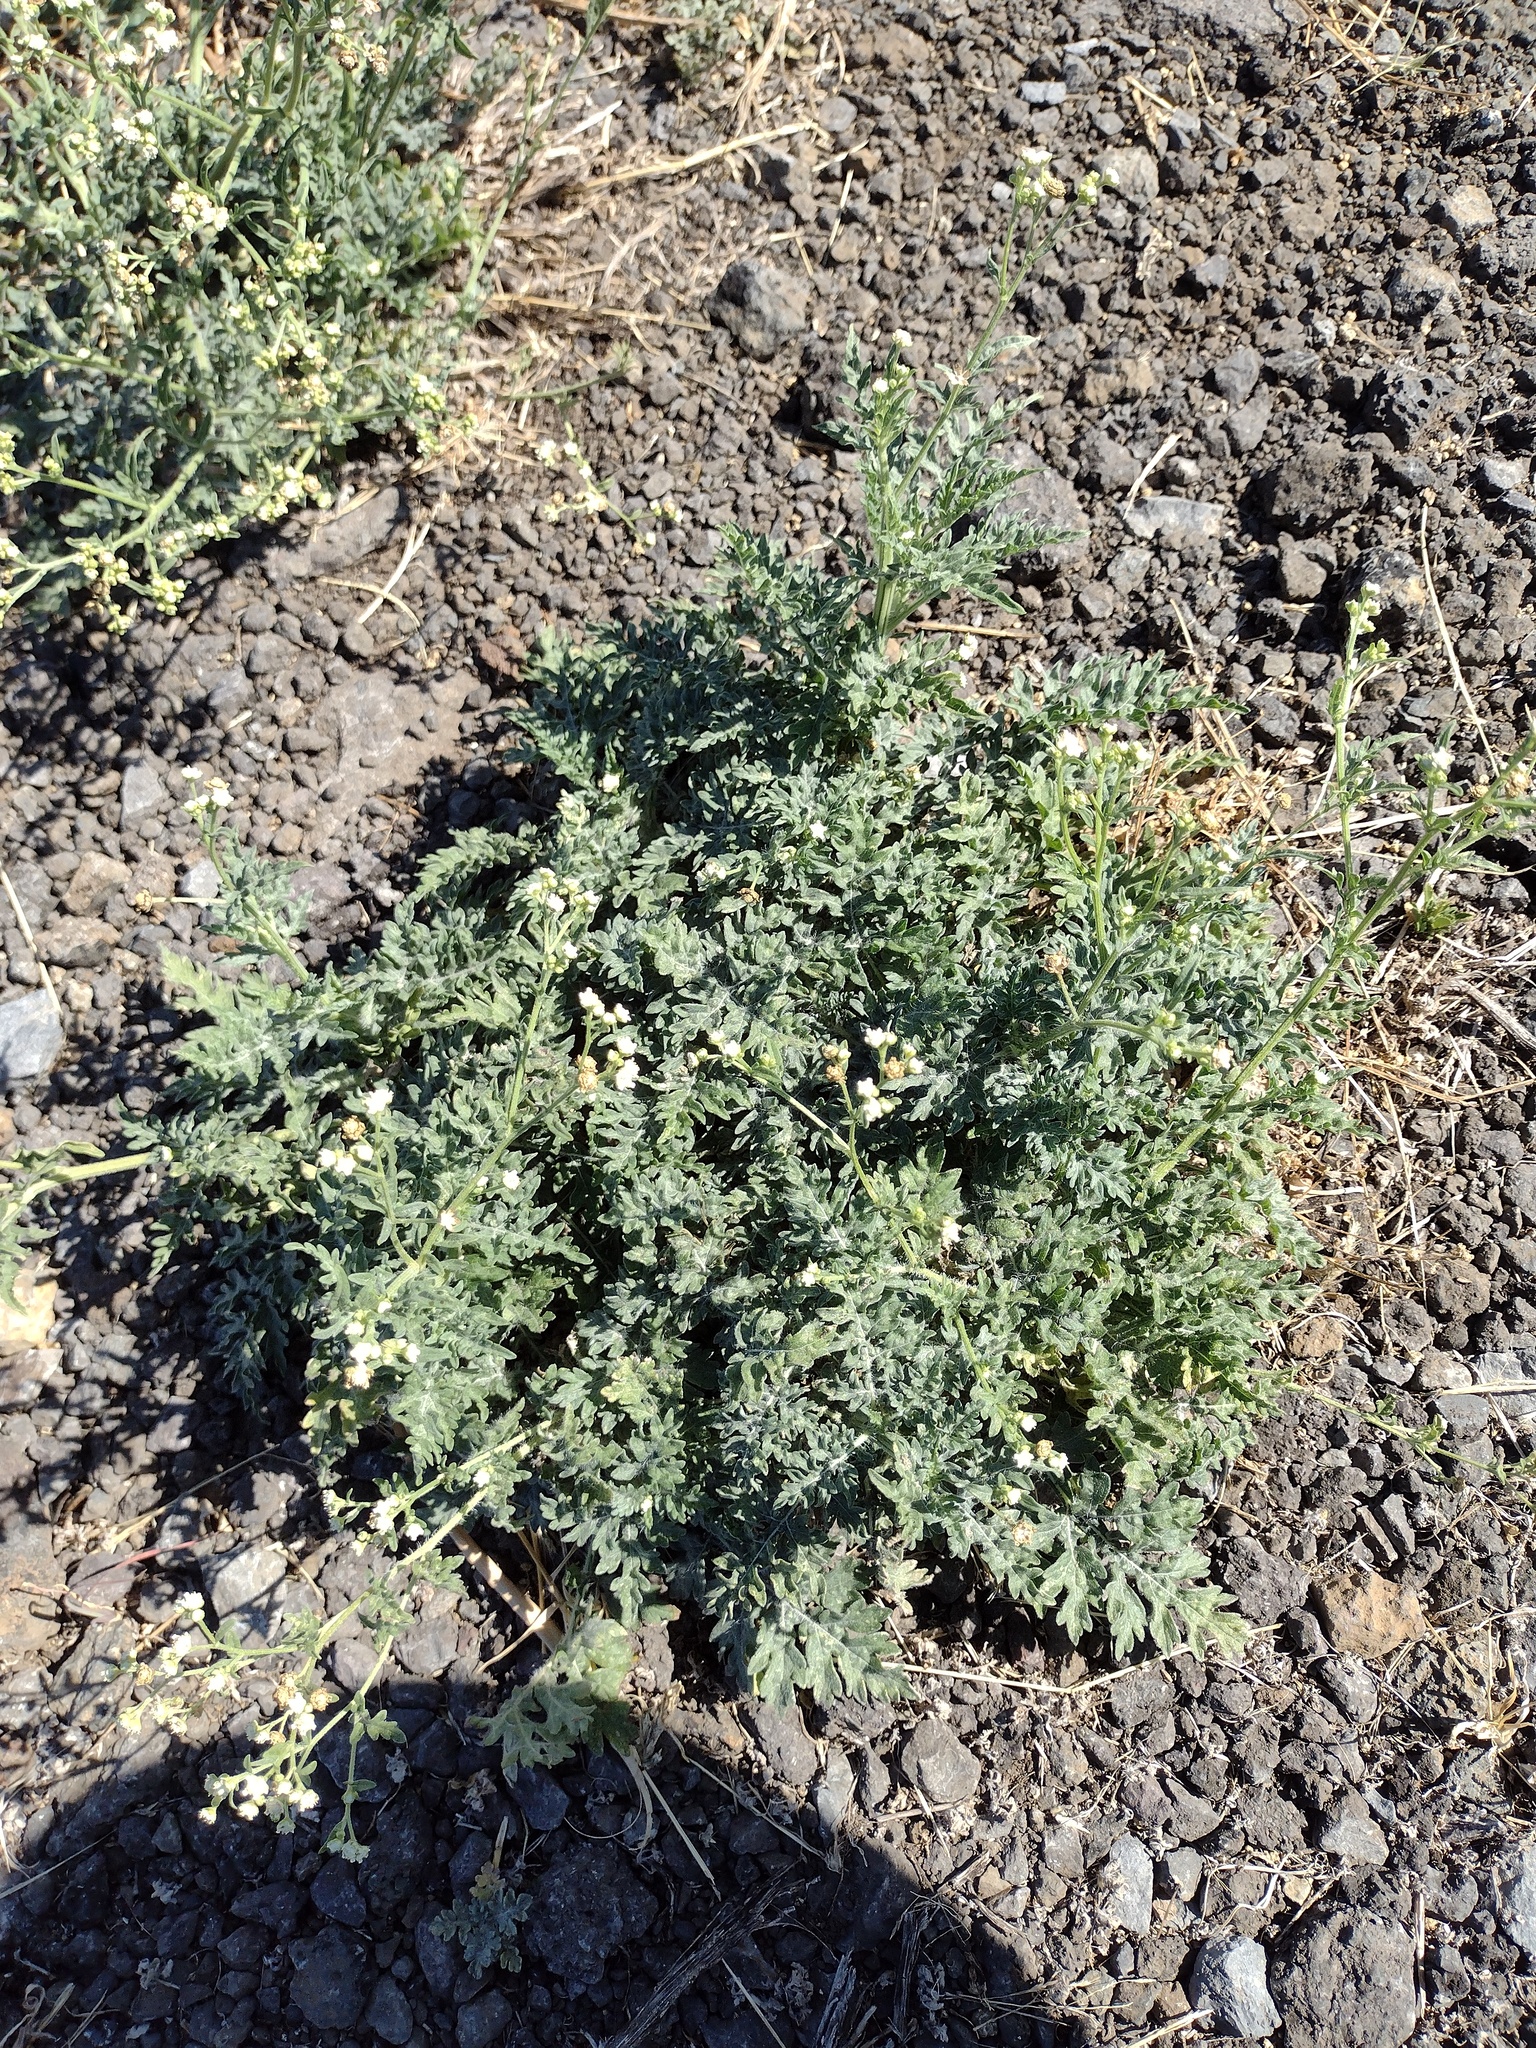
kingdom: Plantae
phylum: Tracheophyta
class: Magnoliopsida
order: Asterales
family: Asteraceae
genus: Parthenium
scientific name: Parthenium hysterophorus
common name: Santa maria feverfew
